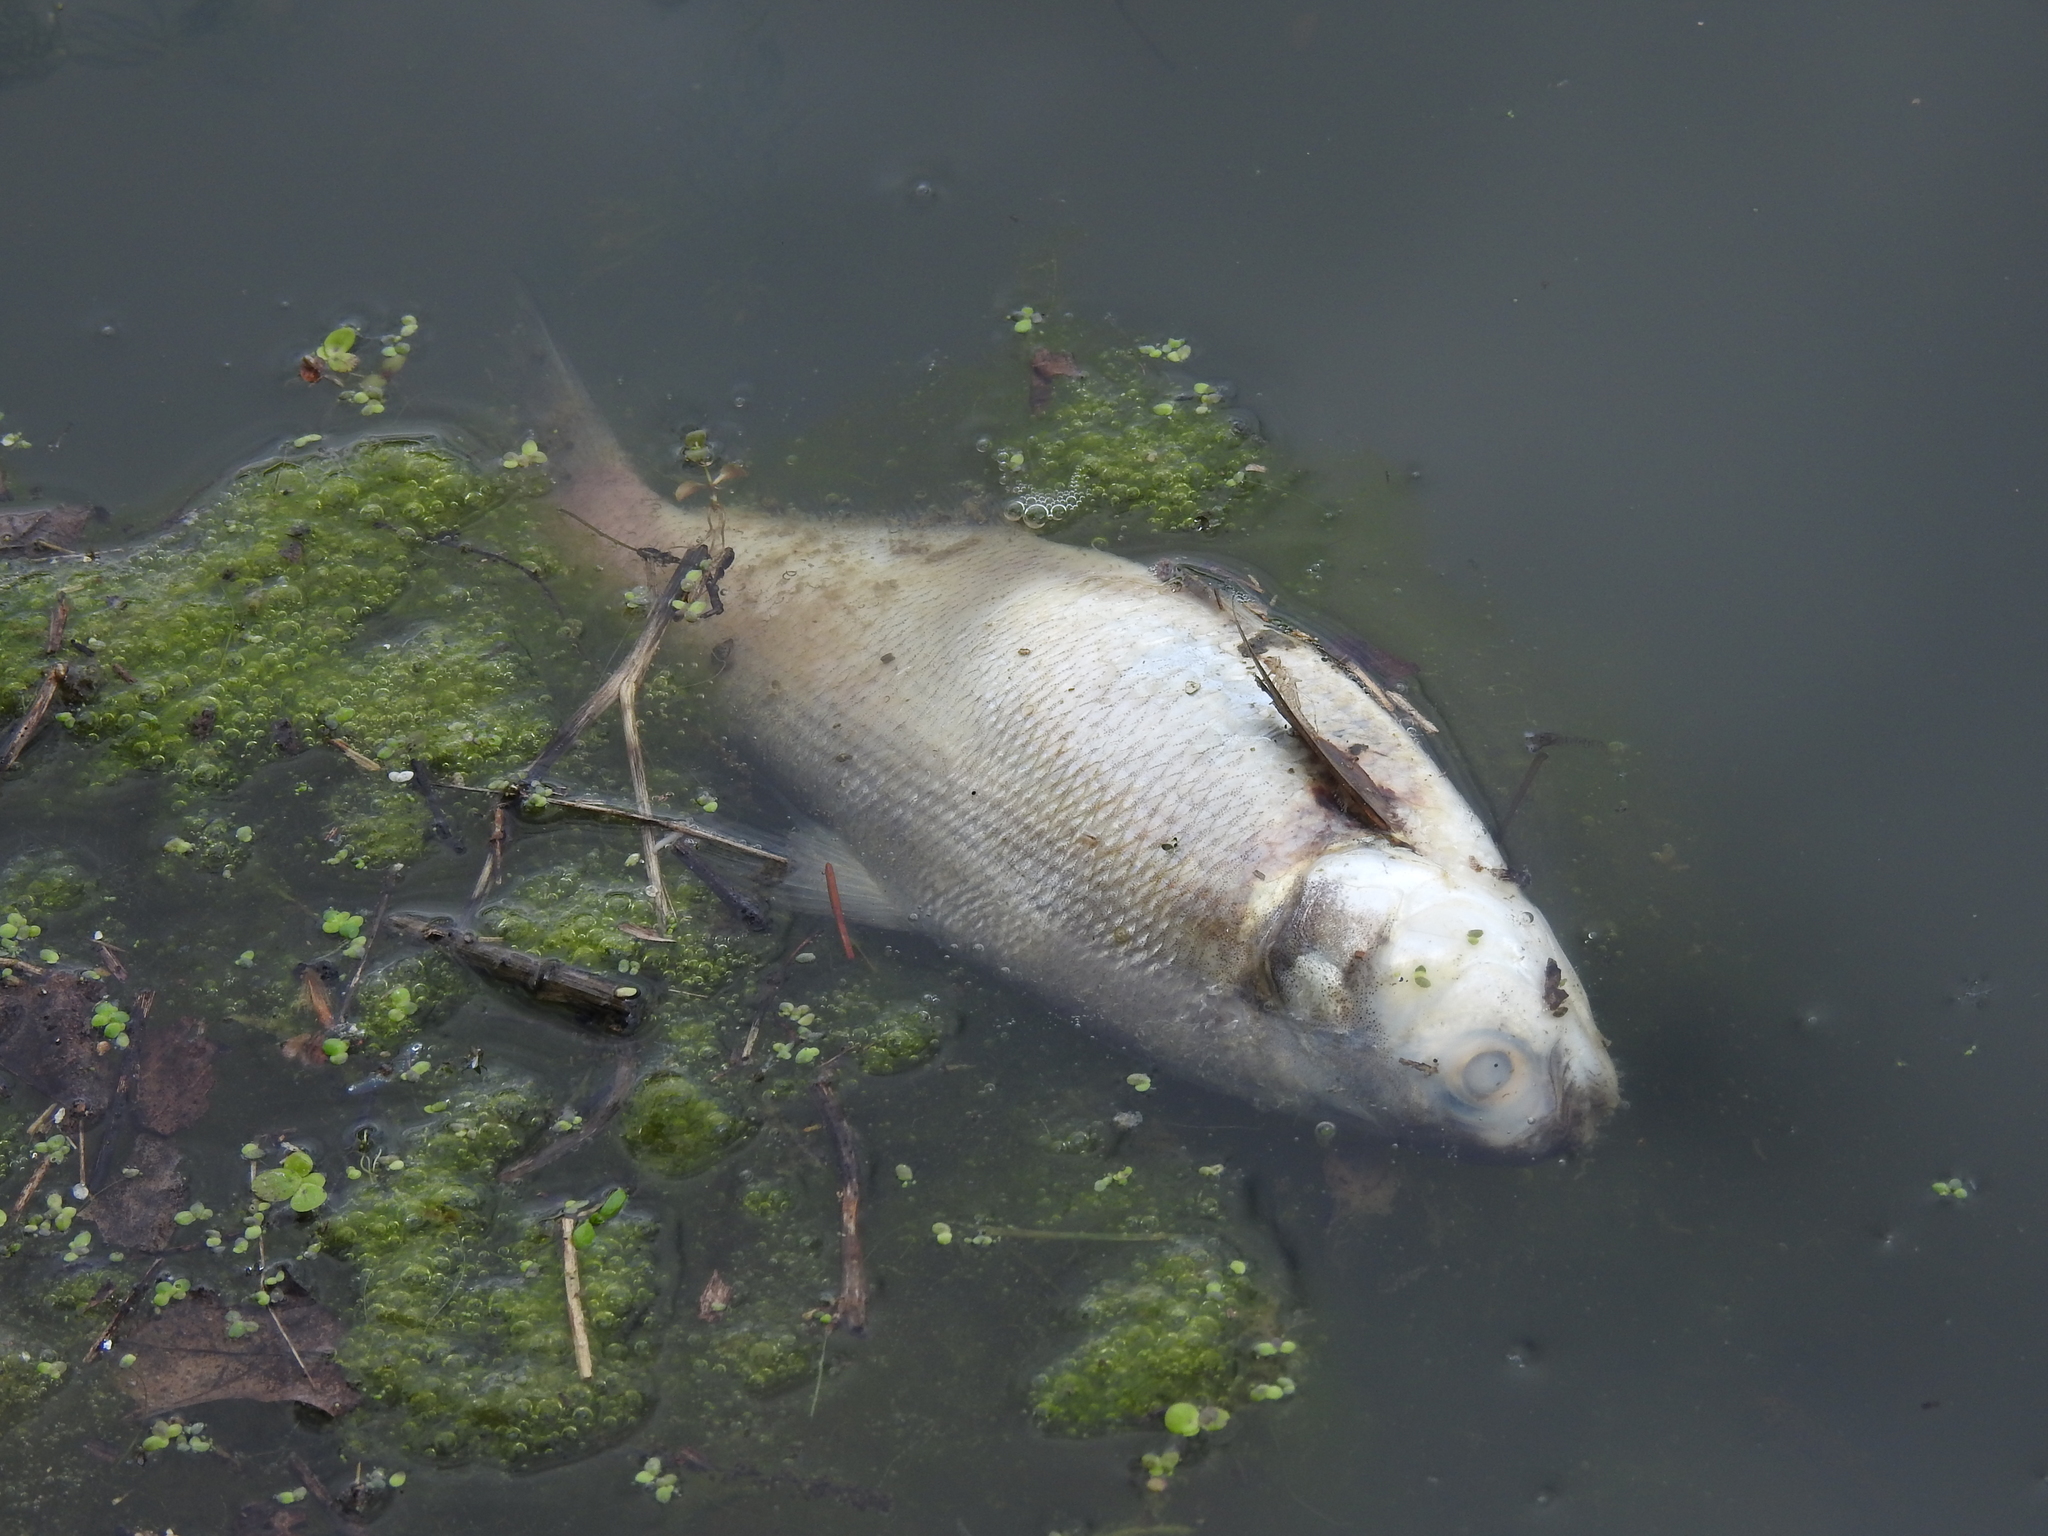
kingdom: Animalia
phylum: Chordata
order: Clupeiformes
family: Clupeidae
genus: Dorosoma
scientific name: Dorosoma cepedianum
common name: Gizzard shad
